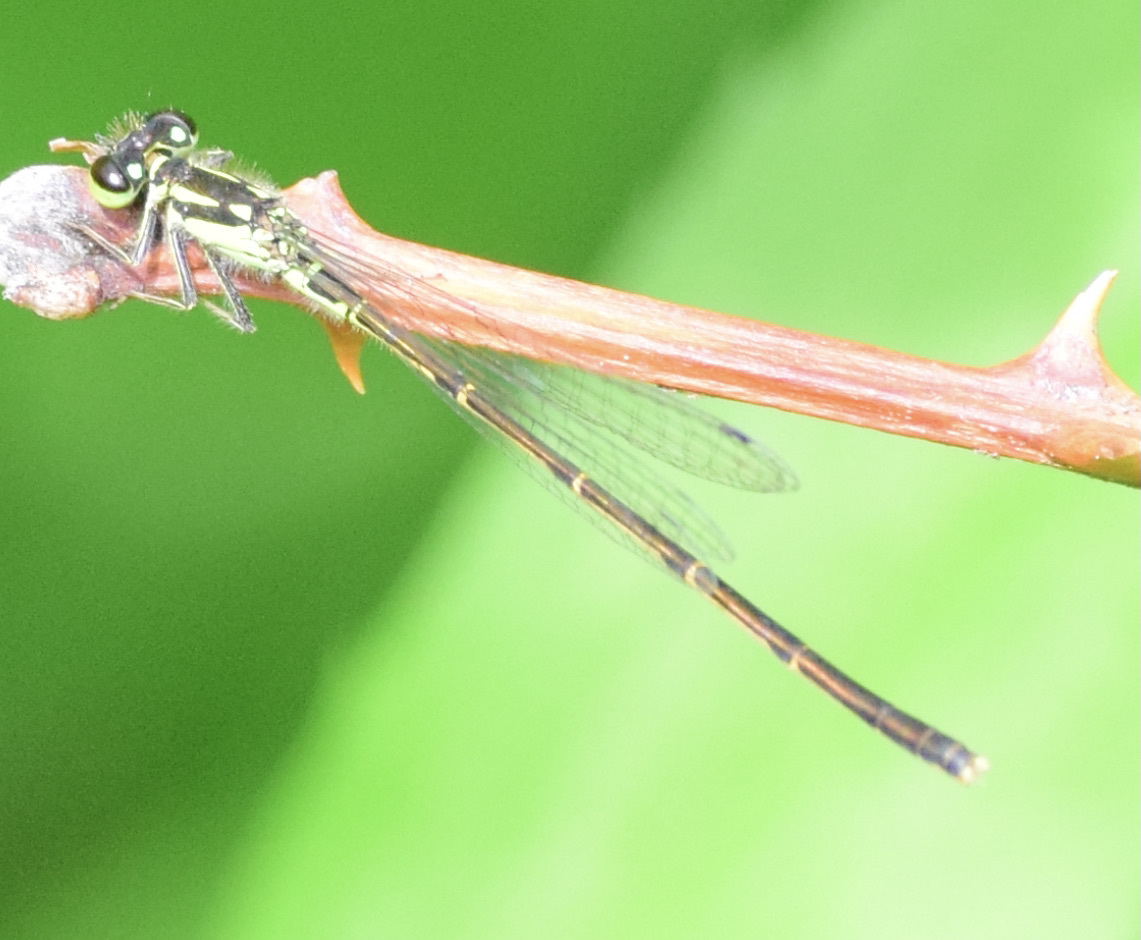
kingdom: Animalia
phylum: Arthropoda
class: Insecta
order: Odonata
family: Coenagrionidae
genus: Ischnura
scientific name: Ischnura posita
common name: Fragile forktail
